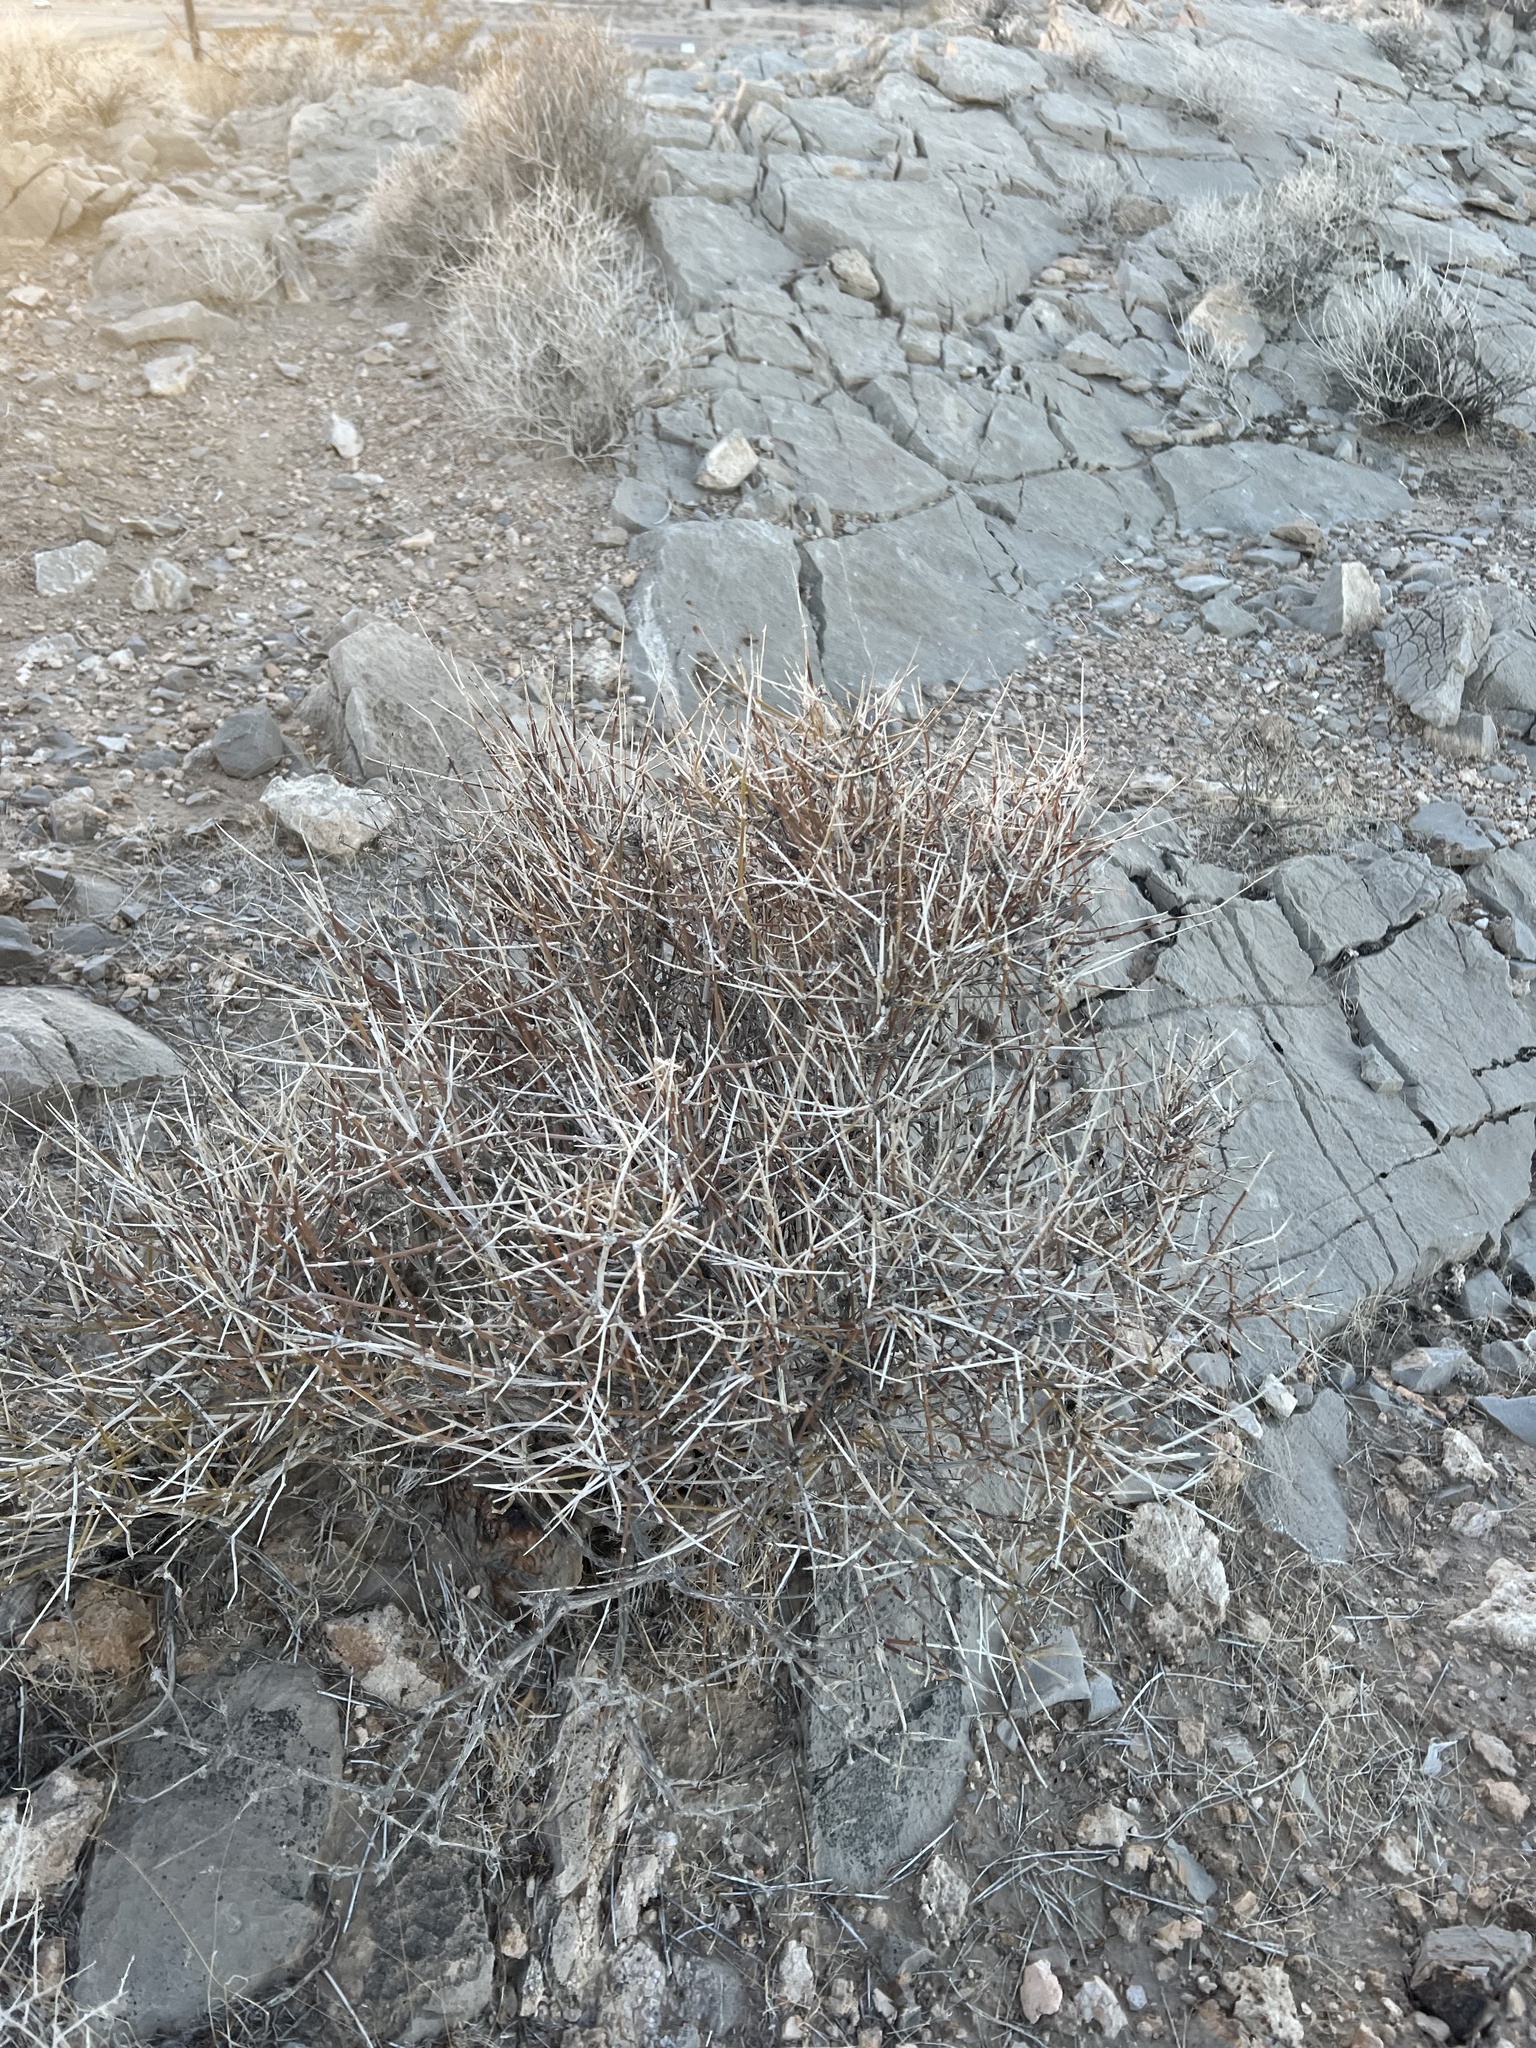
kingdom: Plantae
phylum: Tracheophyta
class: Gnetopsida
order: Ephedrales
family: Ephedraceae
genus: Ephedra
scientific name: Ephedra nevadensis
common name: Gray ephedra
